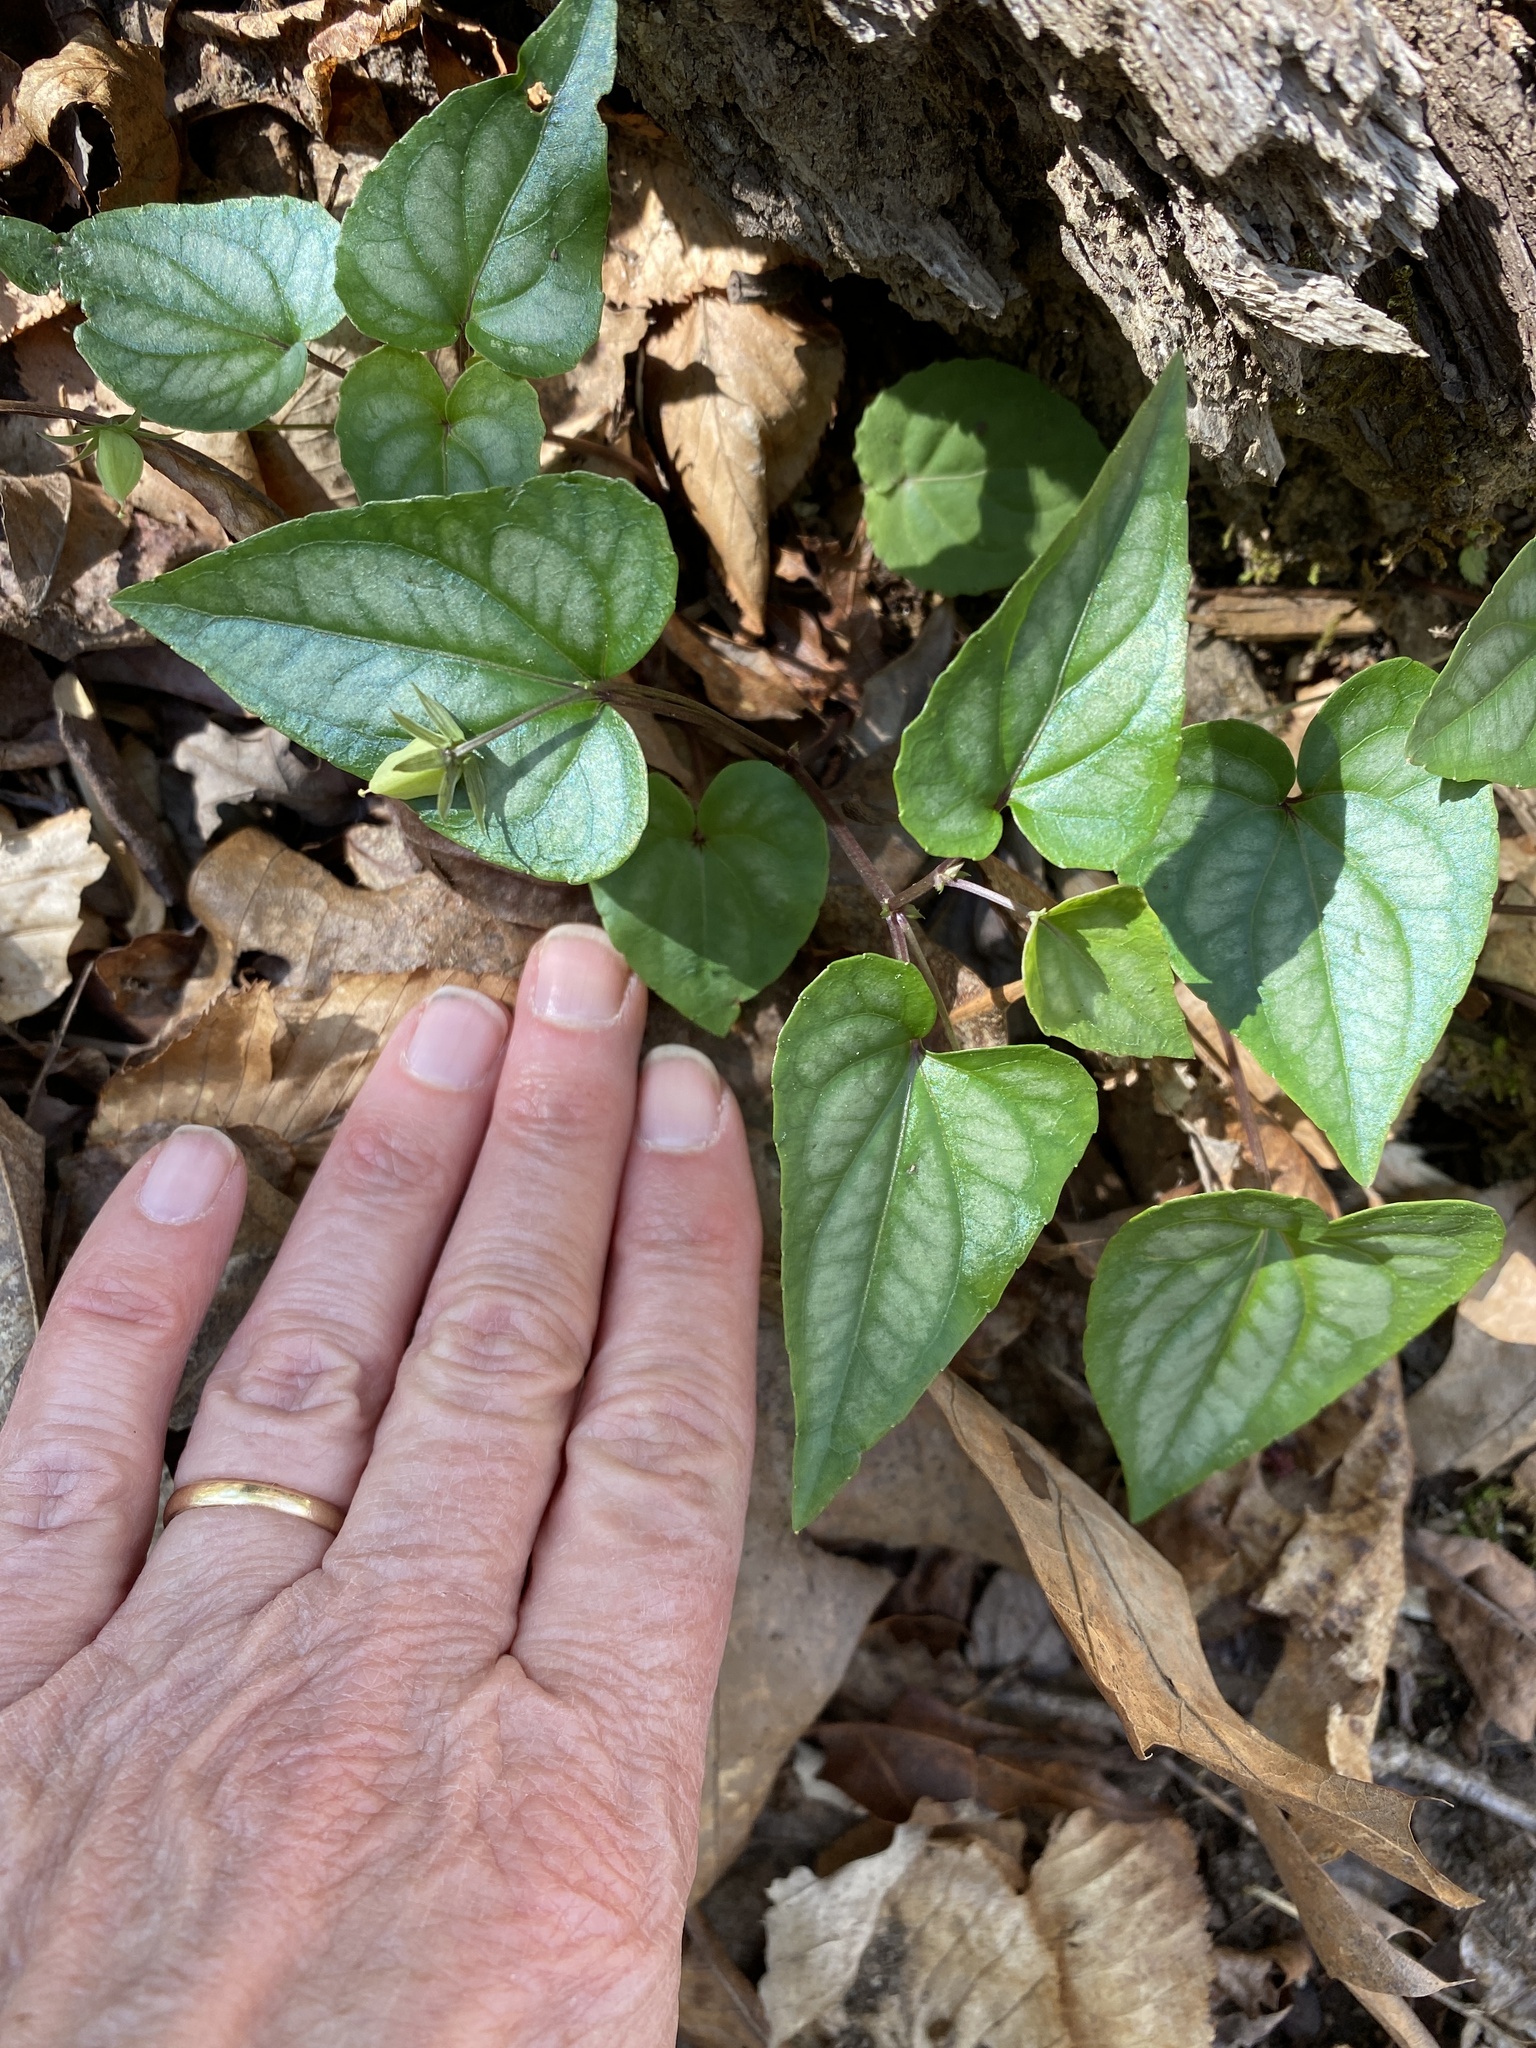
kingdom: Plantae
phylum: Tracheophyta
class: Magnoliopsida
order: Malpighiales
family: Violaceae
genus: Viola
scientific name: Viola hastata
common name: Spear-leaf violet
